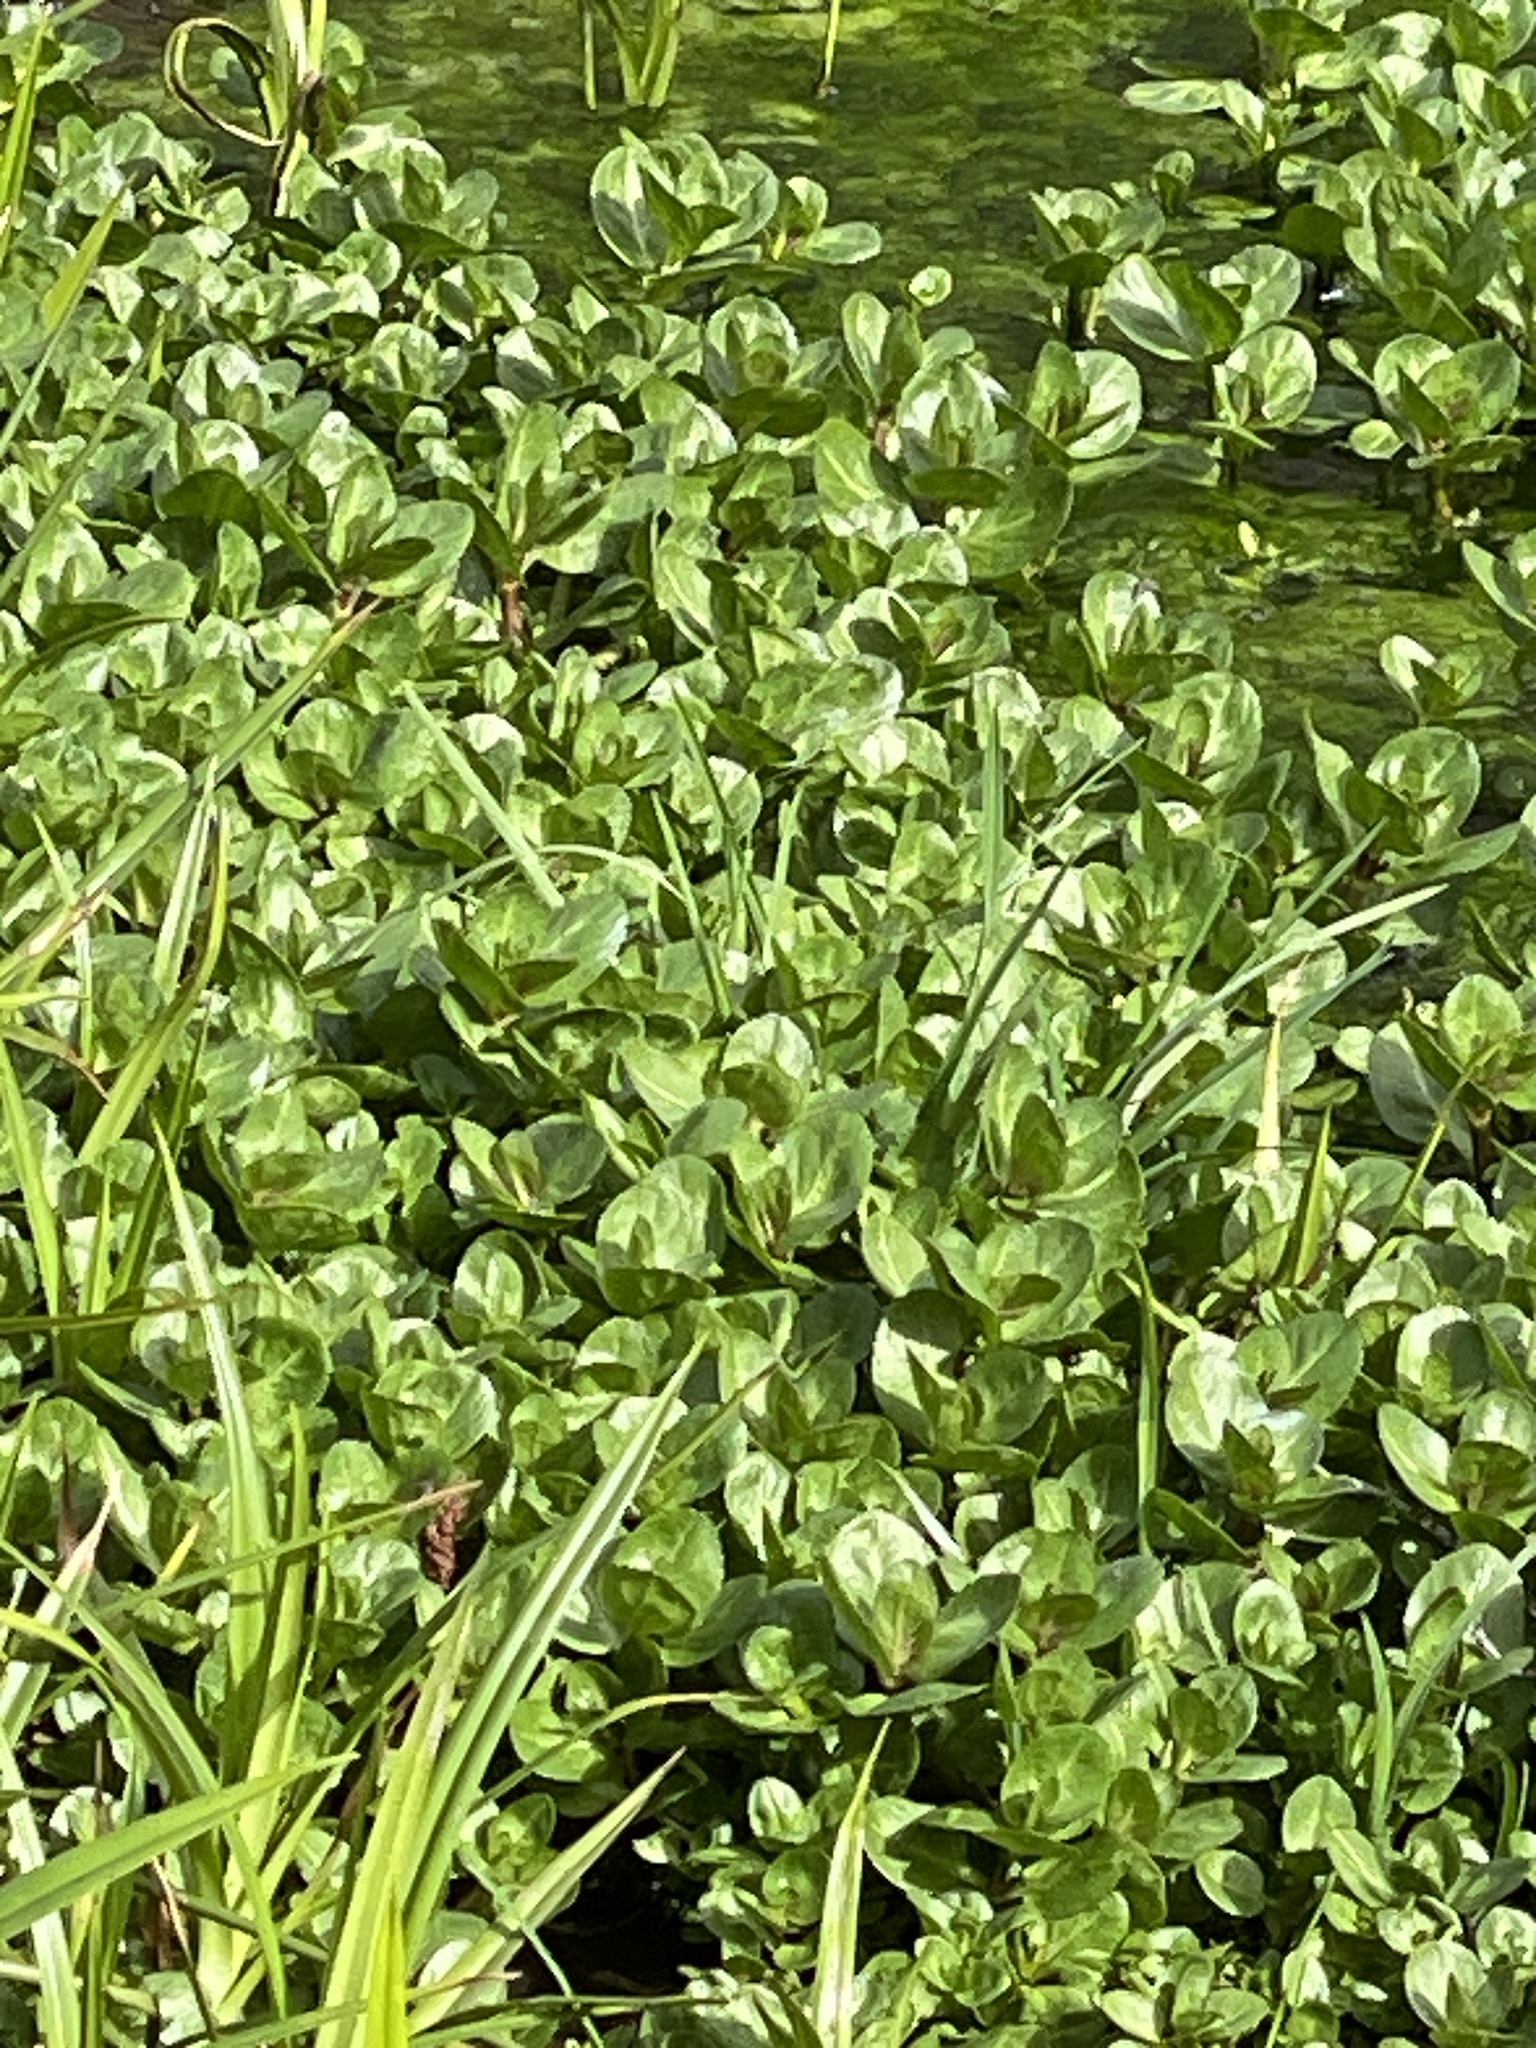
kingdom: Plantae
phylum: Tracheophyta
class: Magnoliopsida
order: Lamiales
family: Plantaginaceae
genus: Veronica
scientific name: Veronica beccabunga
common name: Brooklime
